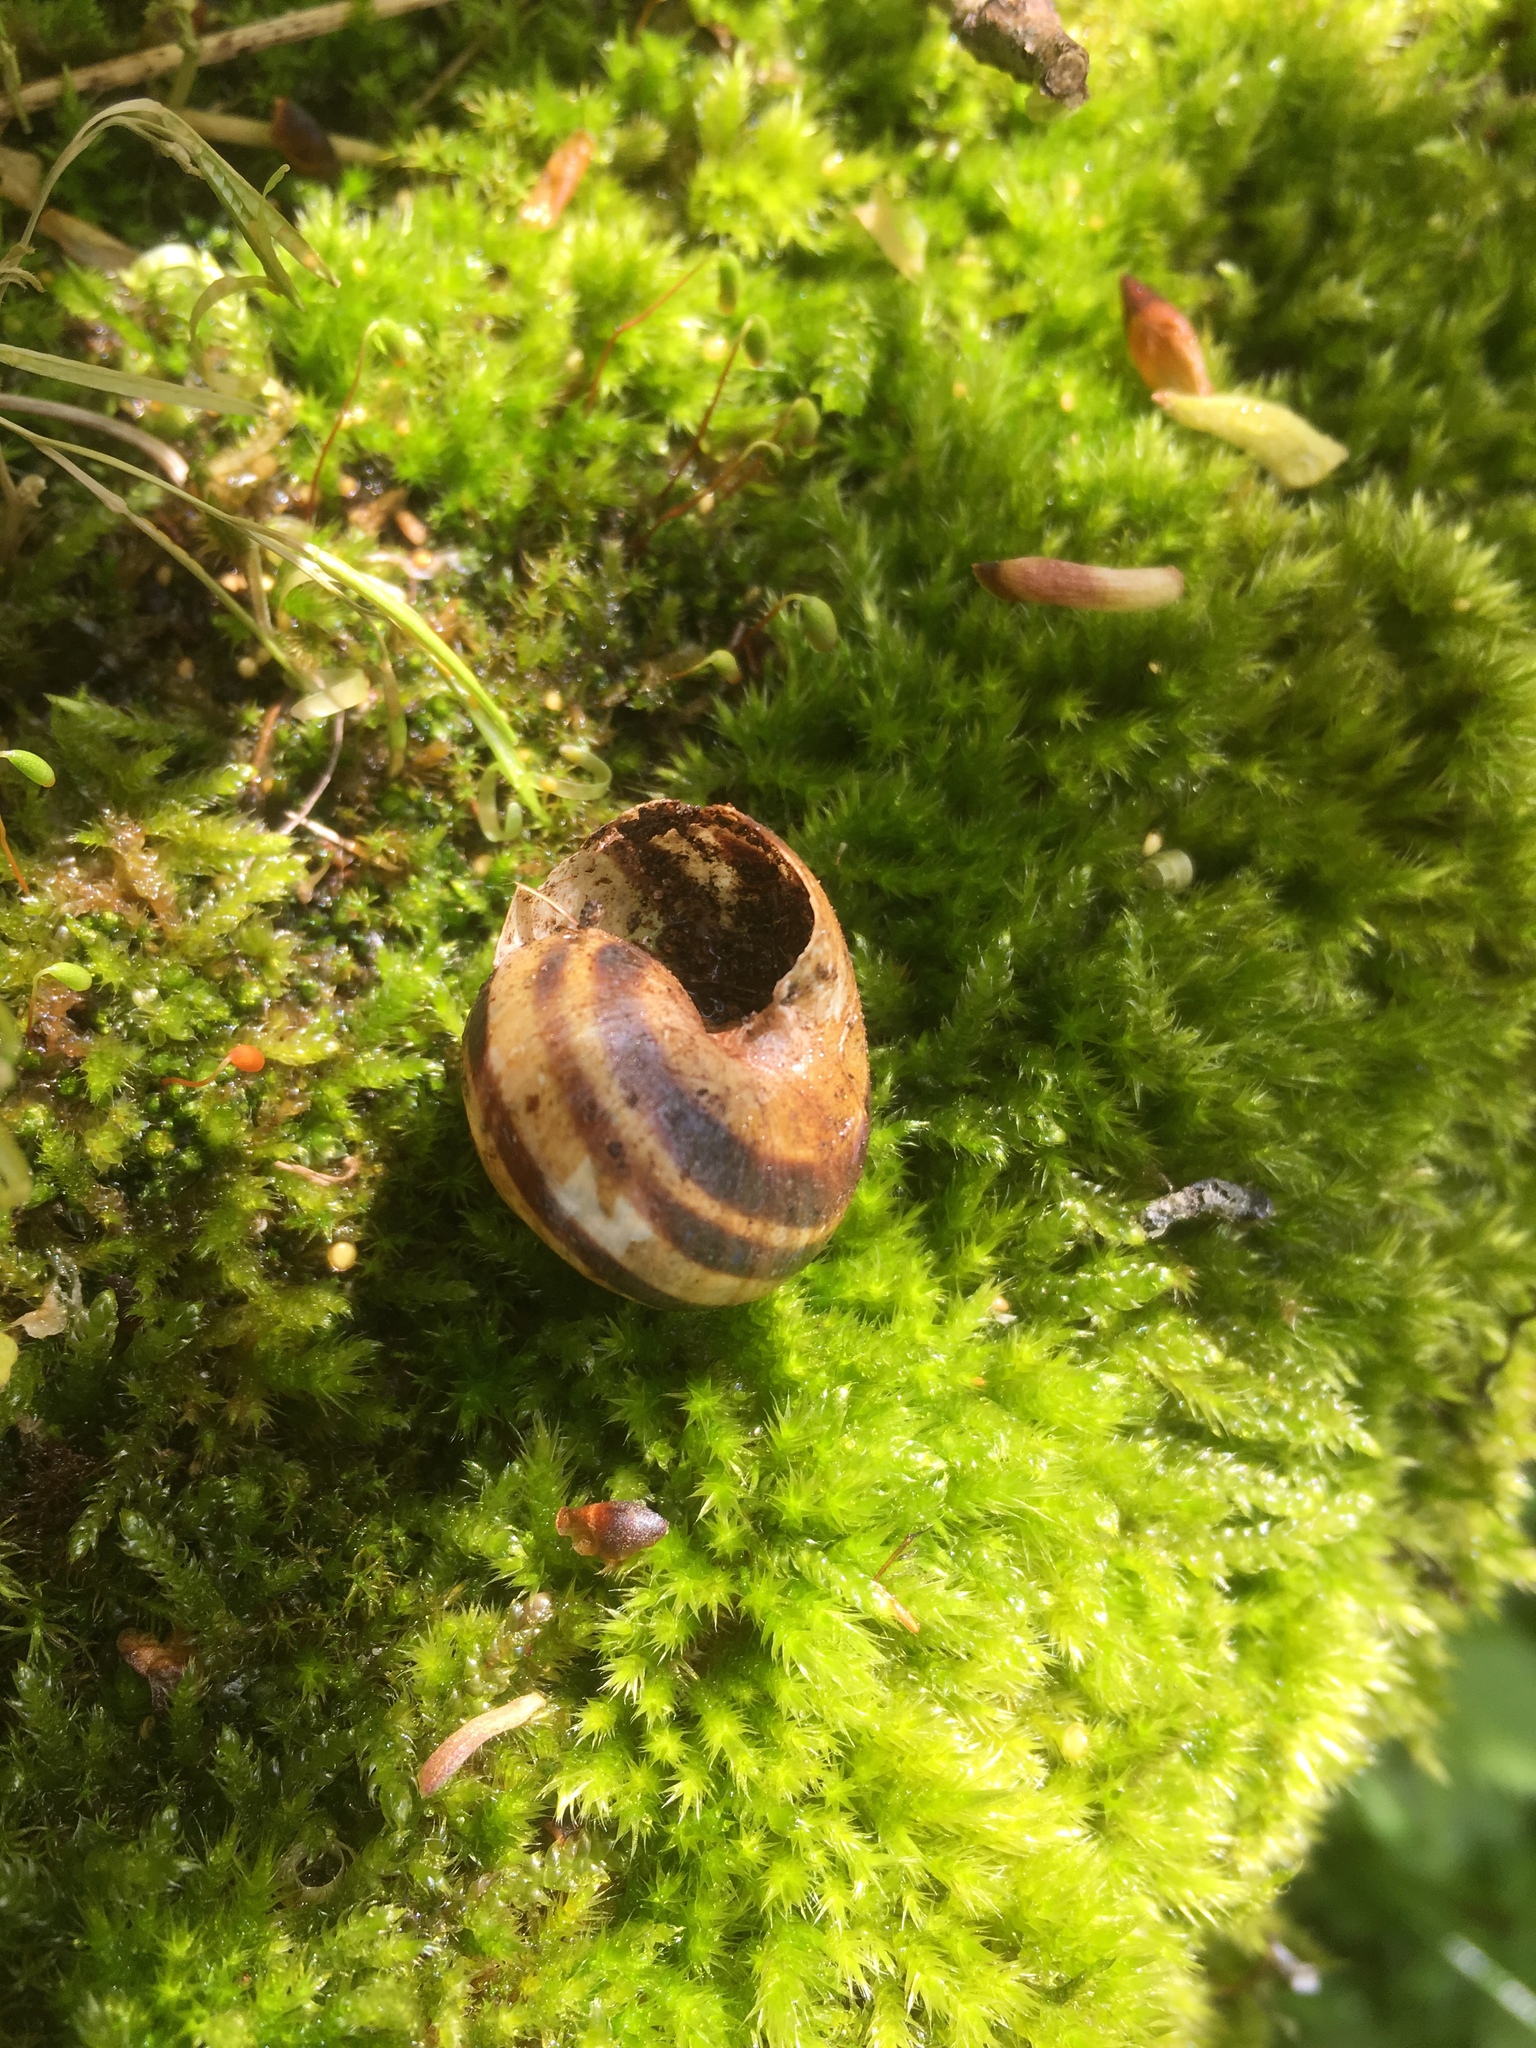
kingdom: Animalia
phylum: Mollusca
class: Gastropoda
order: Stylommatophora
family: Helicidae
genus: Cepaea
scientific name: Cepaea nemoralis
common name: Grovesnail
